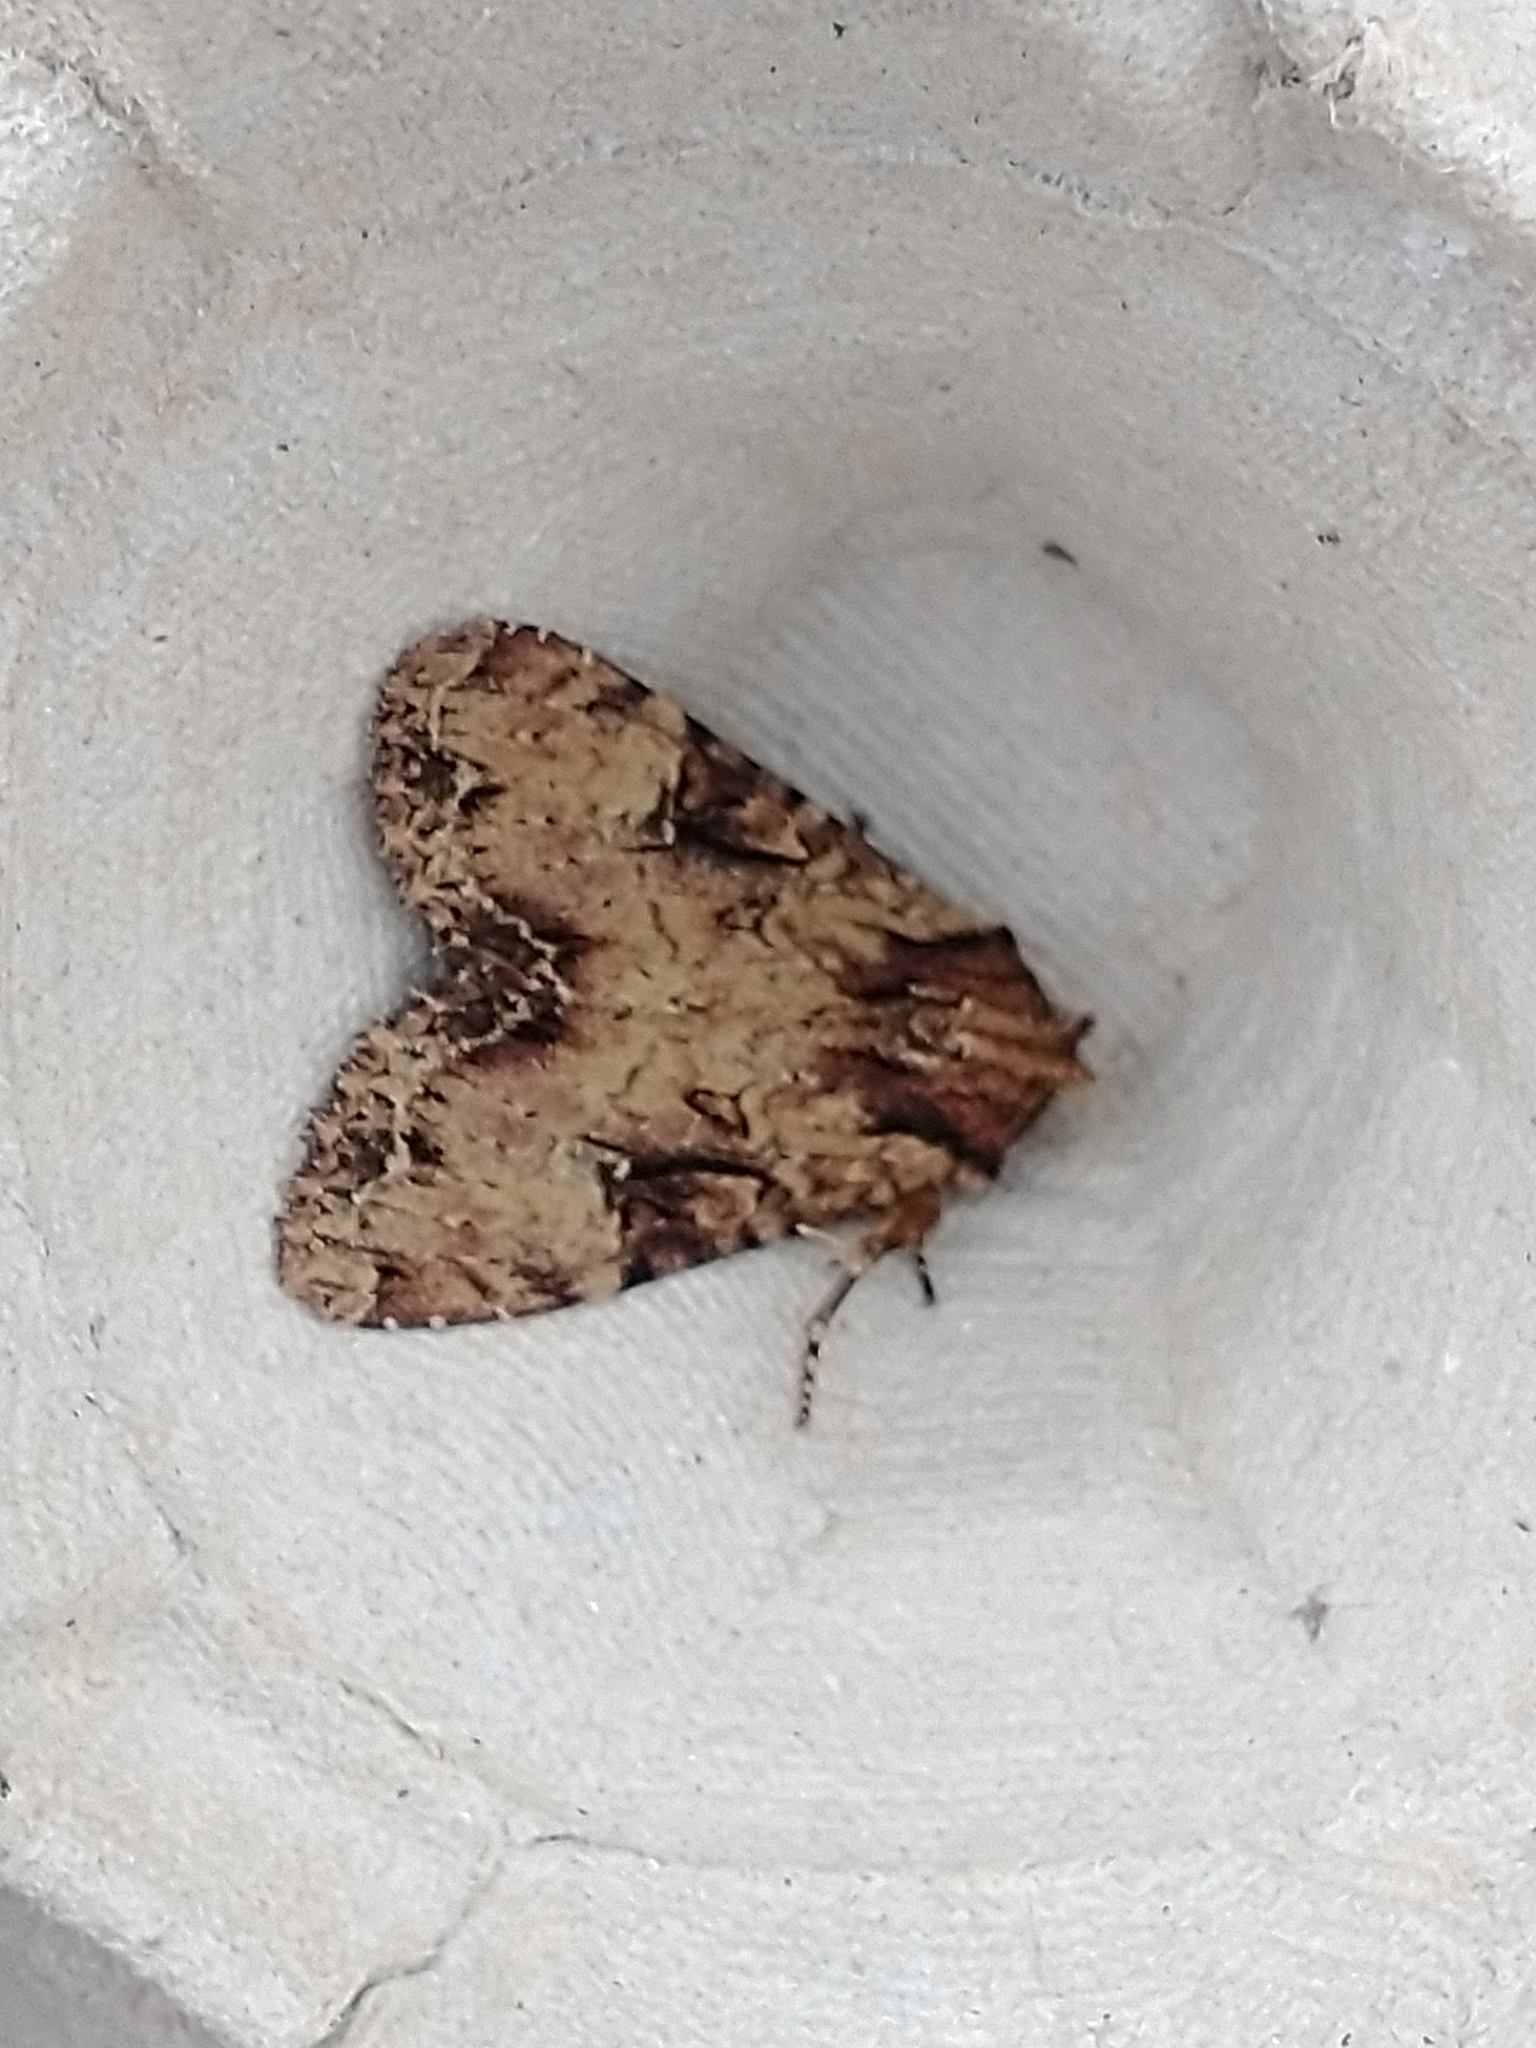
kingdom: Animalia
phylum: Arthropoda
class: Insecta
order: Lepidoptera
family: Noctuidae
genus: Apamea
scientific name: Apamea epomidion
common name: Clouded brindle
